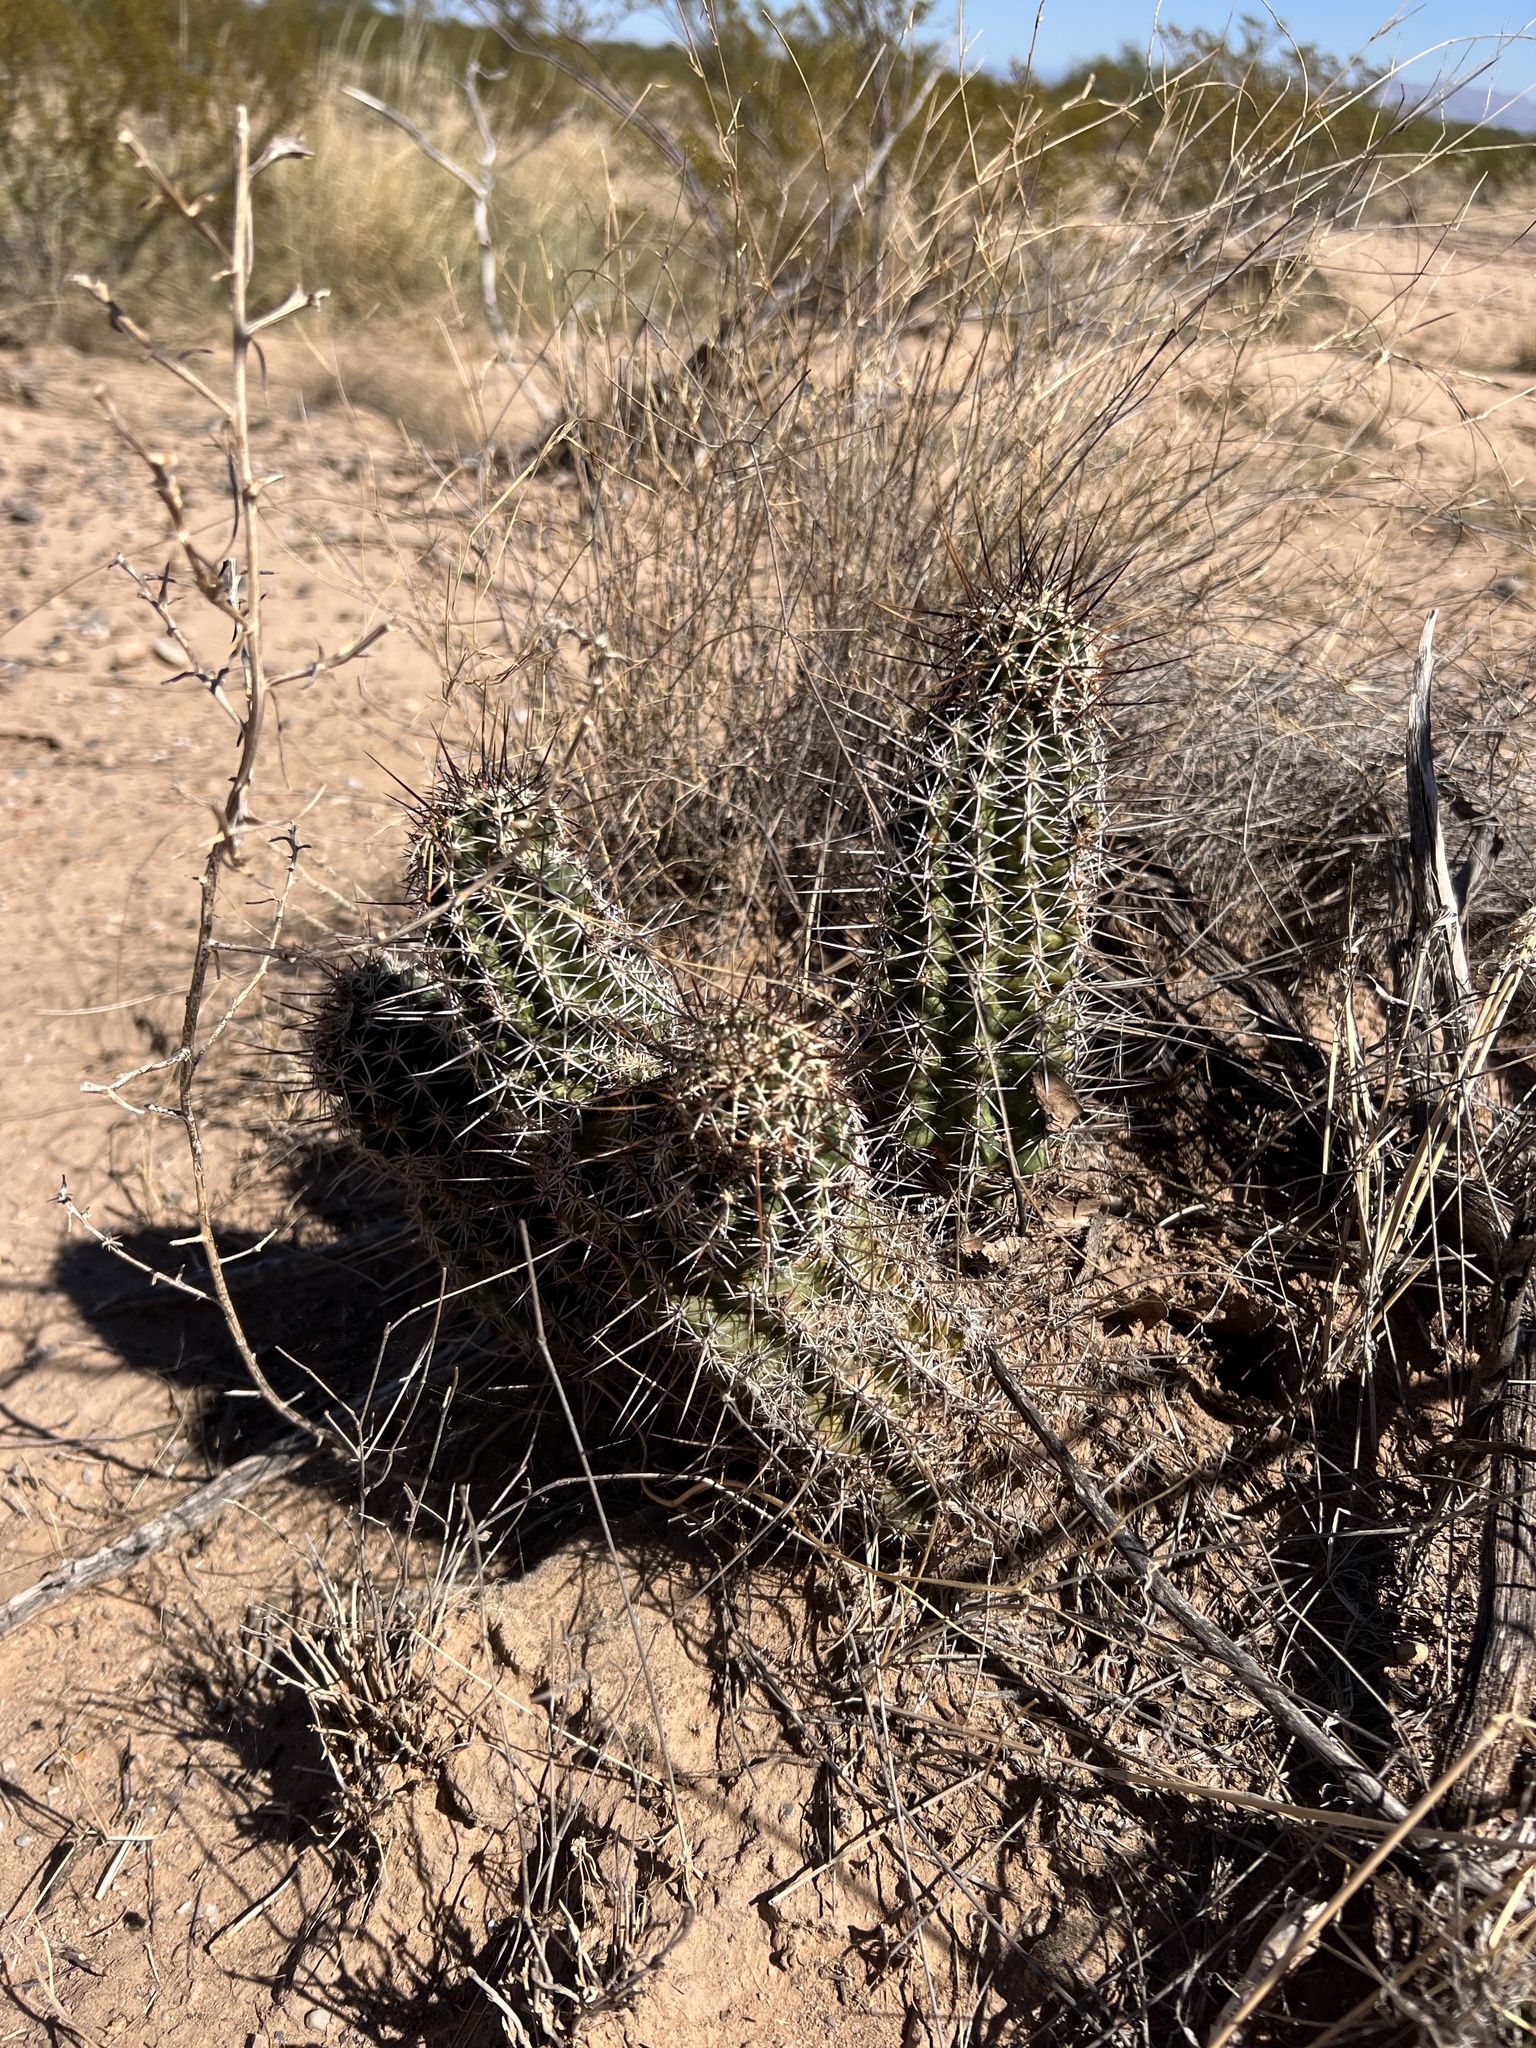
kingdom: Plantae
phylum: Tracheophyta
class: Magnoliopsida
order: Caryophyllales
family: Cactaceae
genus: Echinocereus
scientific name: Echinocereus fendleri
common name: Fendler's hedgehog cactus
